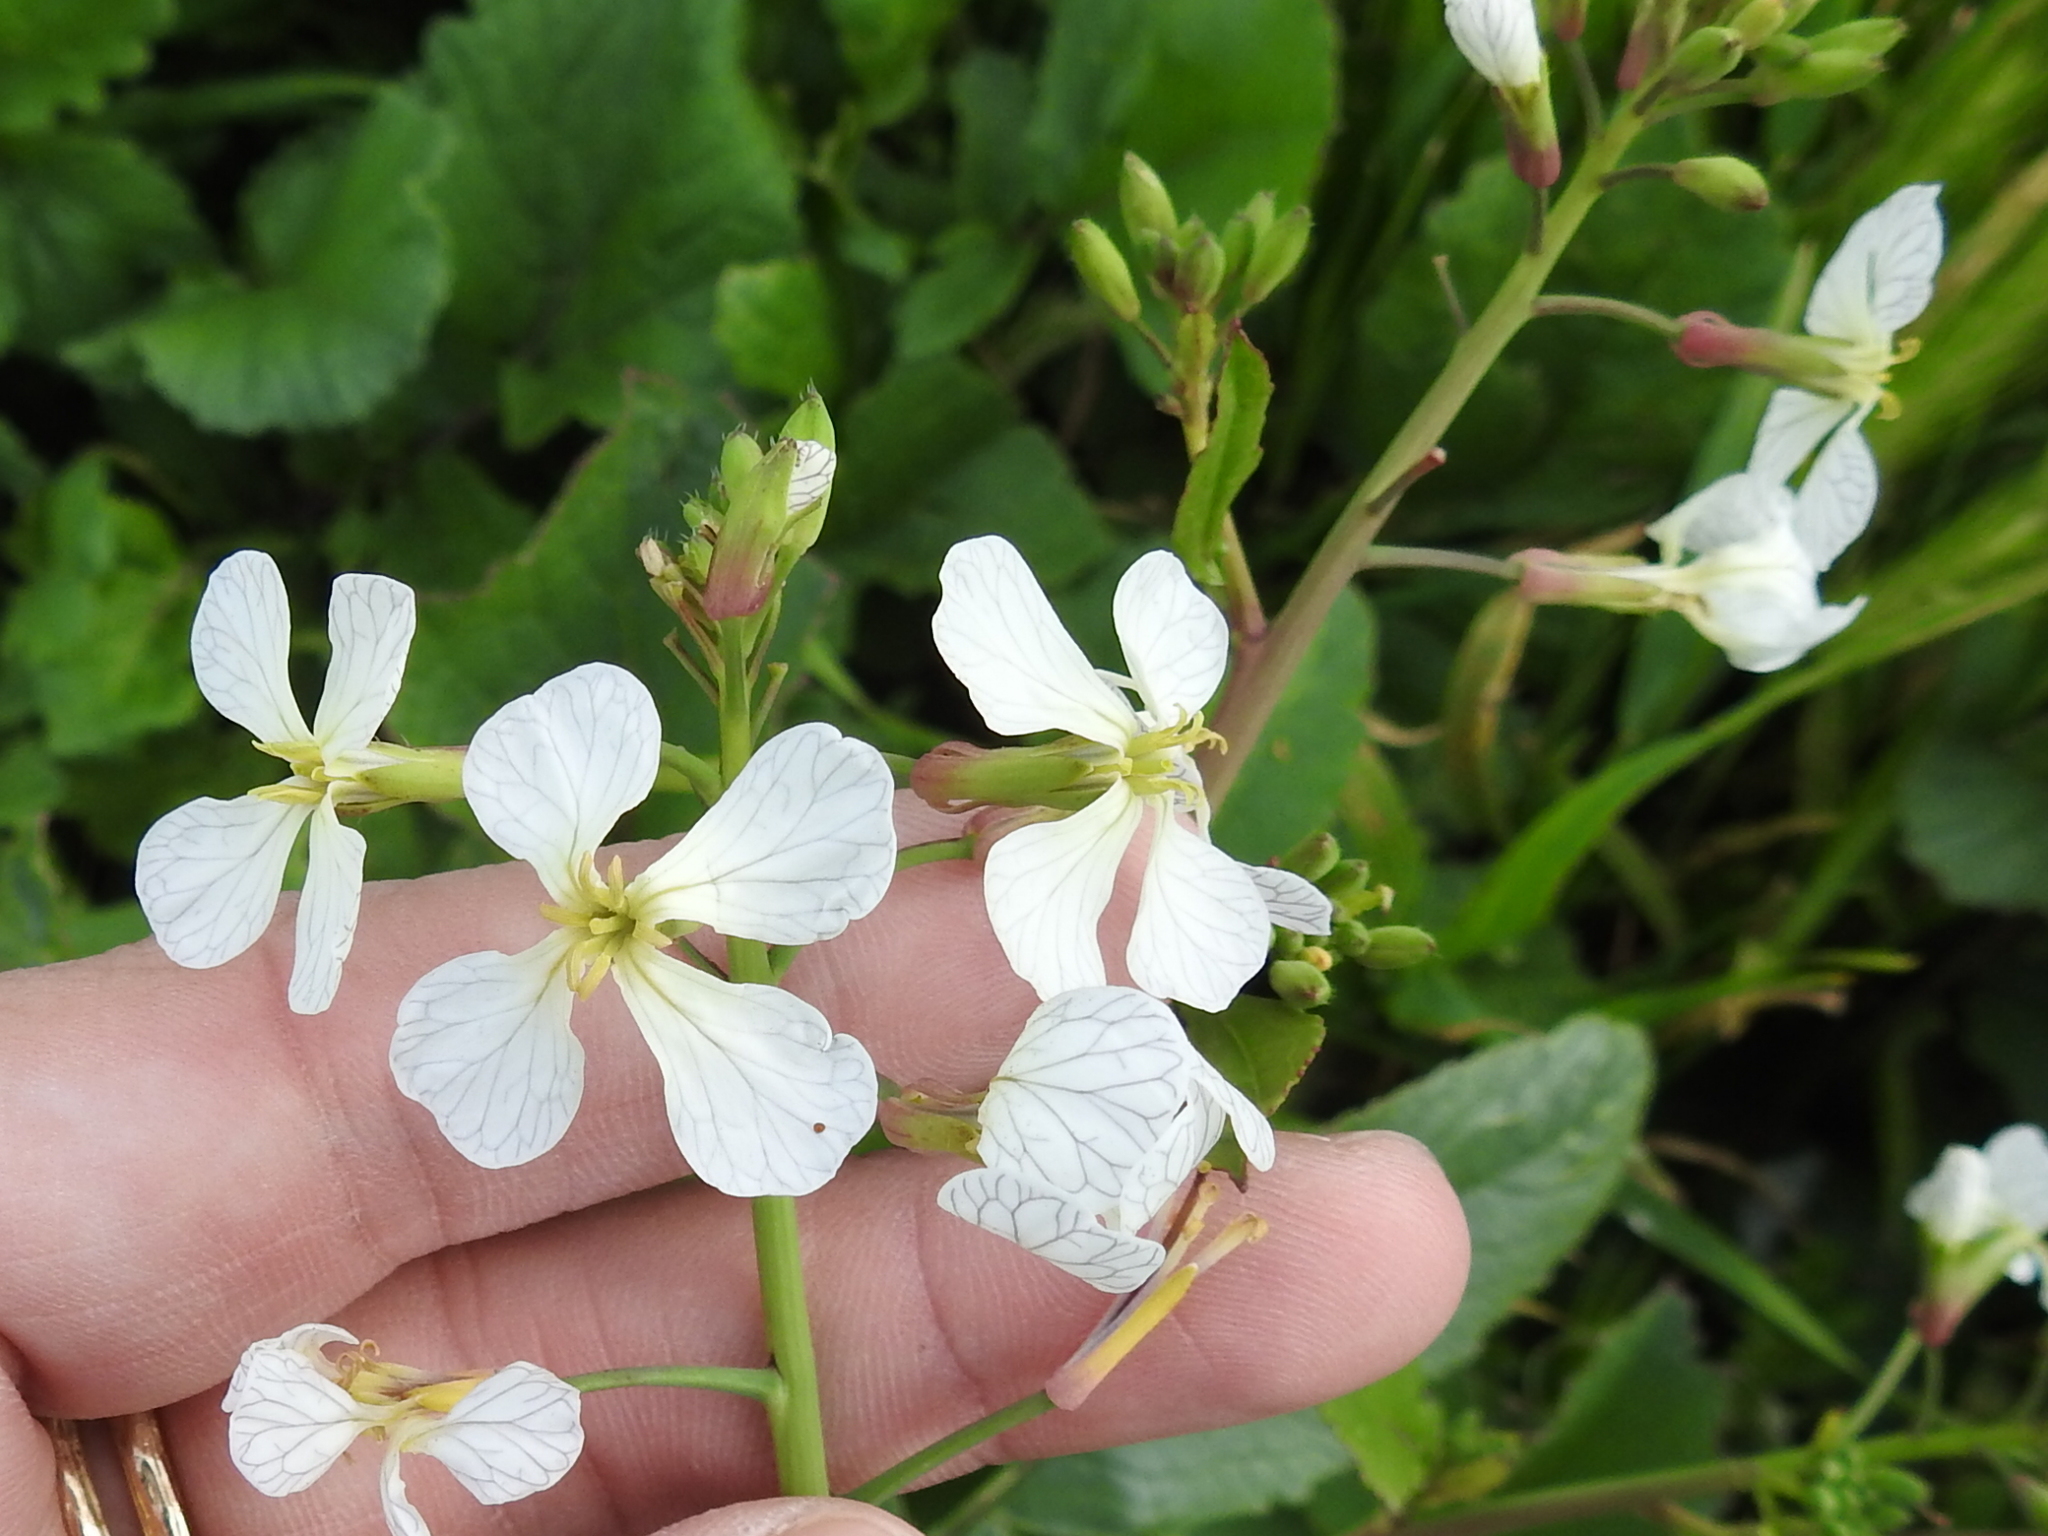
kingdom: Plantae
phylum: Tracheophyta
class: Magnoliopsida
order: Brassicales
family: Brassicaceae
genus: Raphanus
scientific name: Raphanus sativus
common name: Cultivated radish
